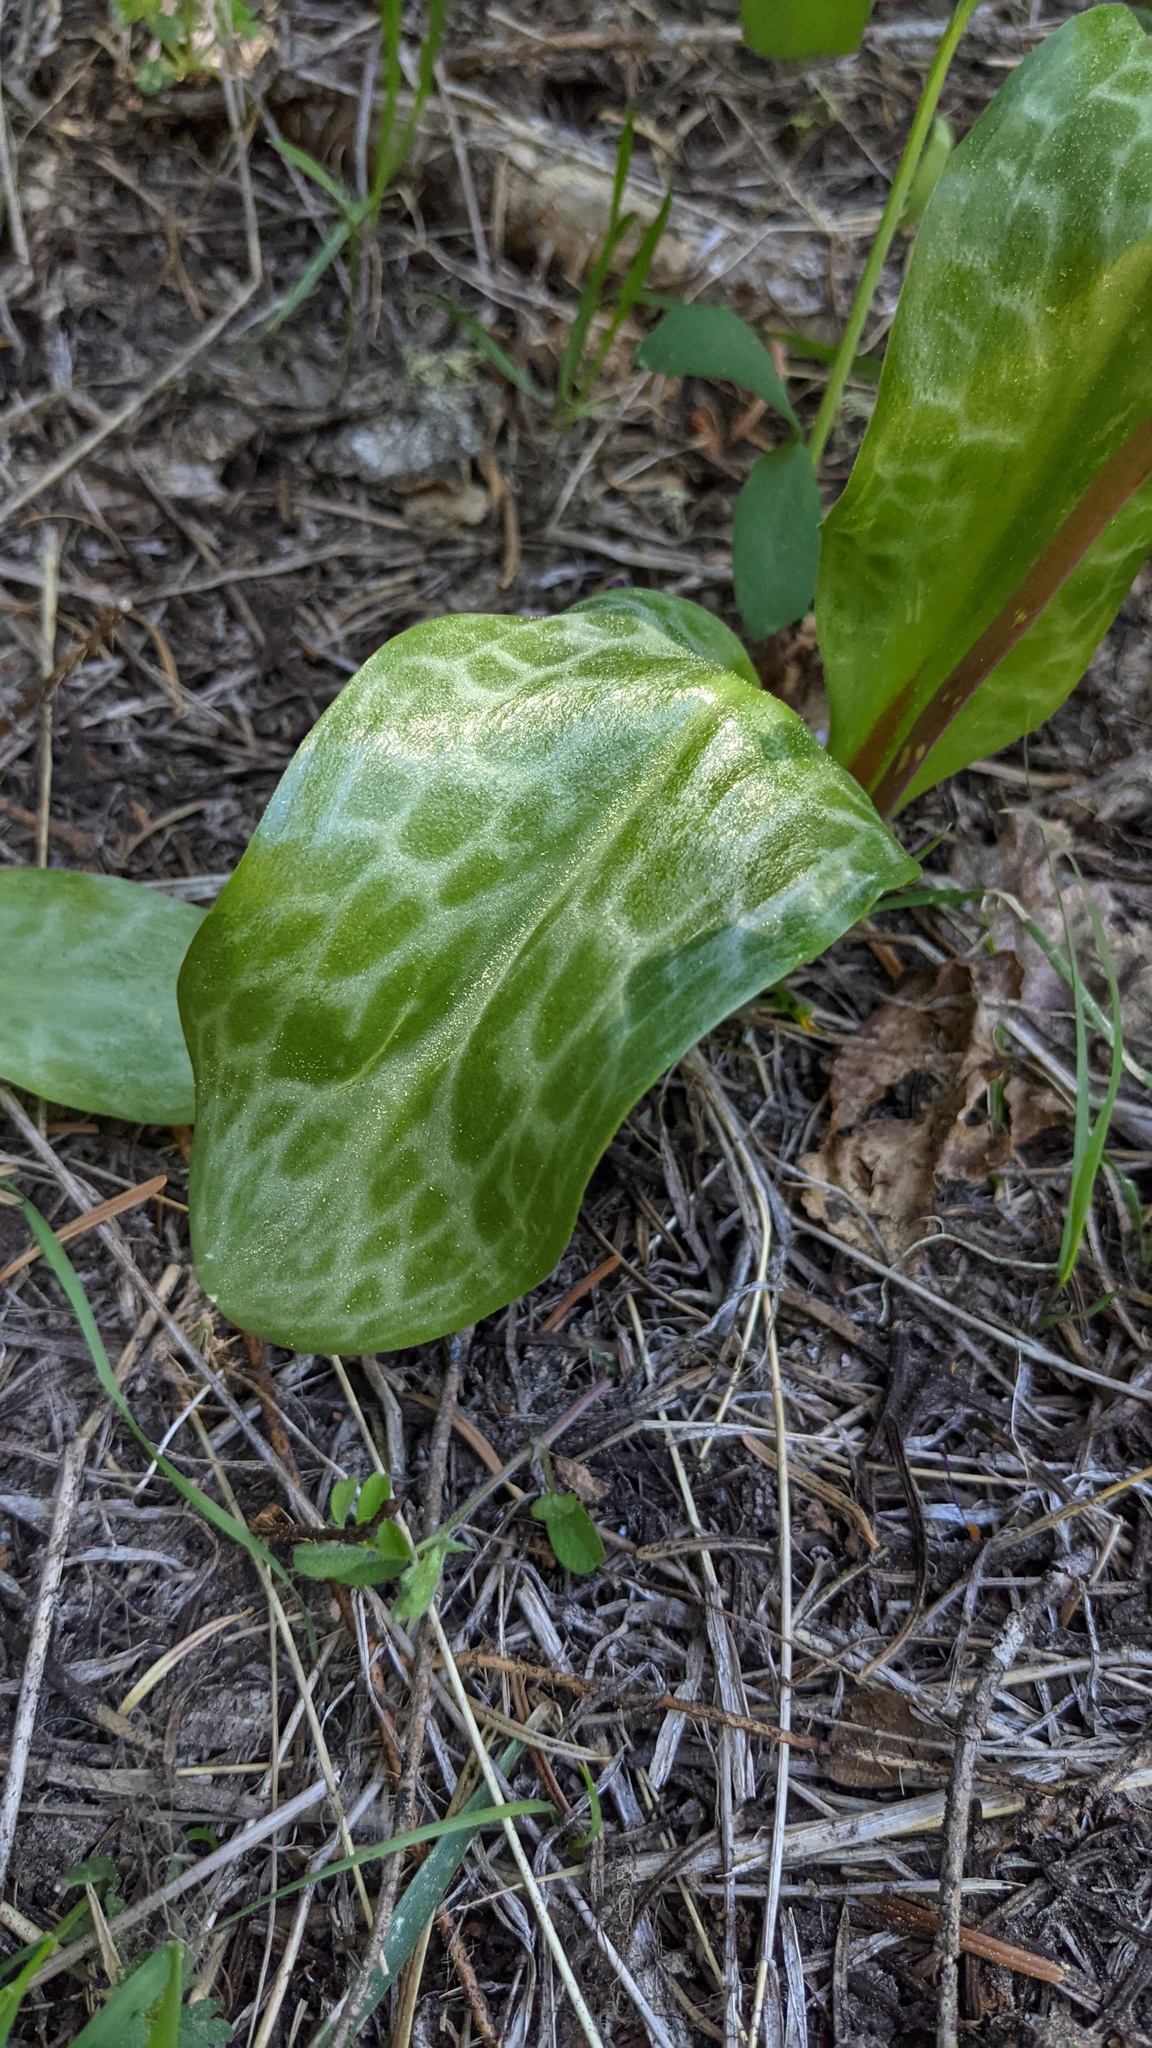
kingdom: Plantae
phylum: Tracheophyta
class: Liliopsida
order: Liliales
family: Liliaceae
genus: Erythronium
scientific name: Erythronium hendersonii
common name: Henderson's fawn-lily
